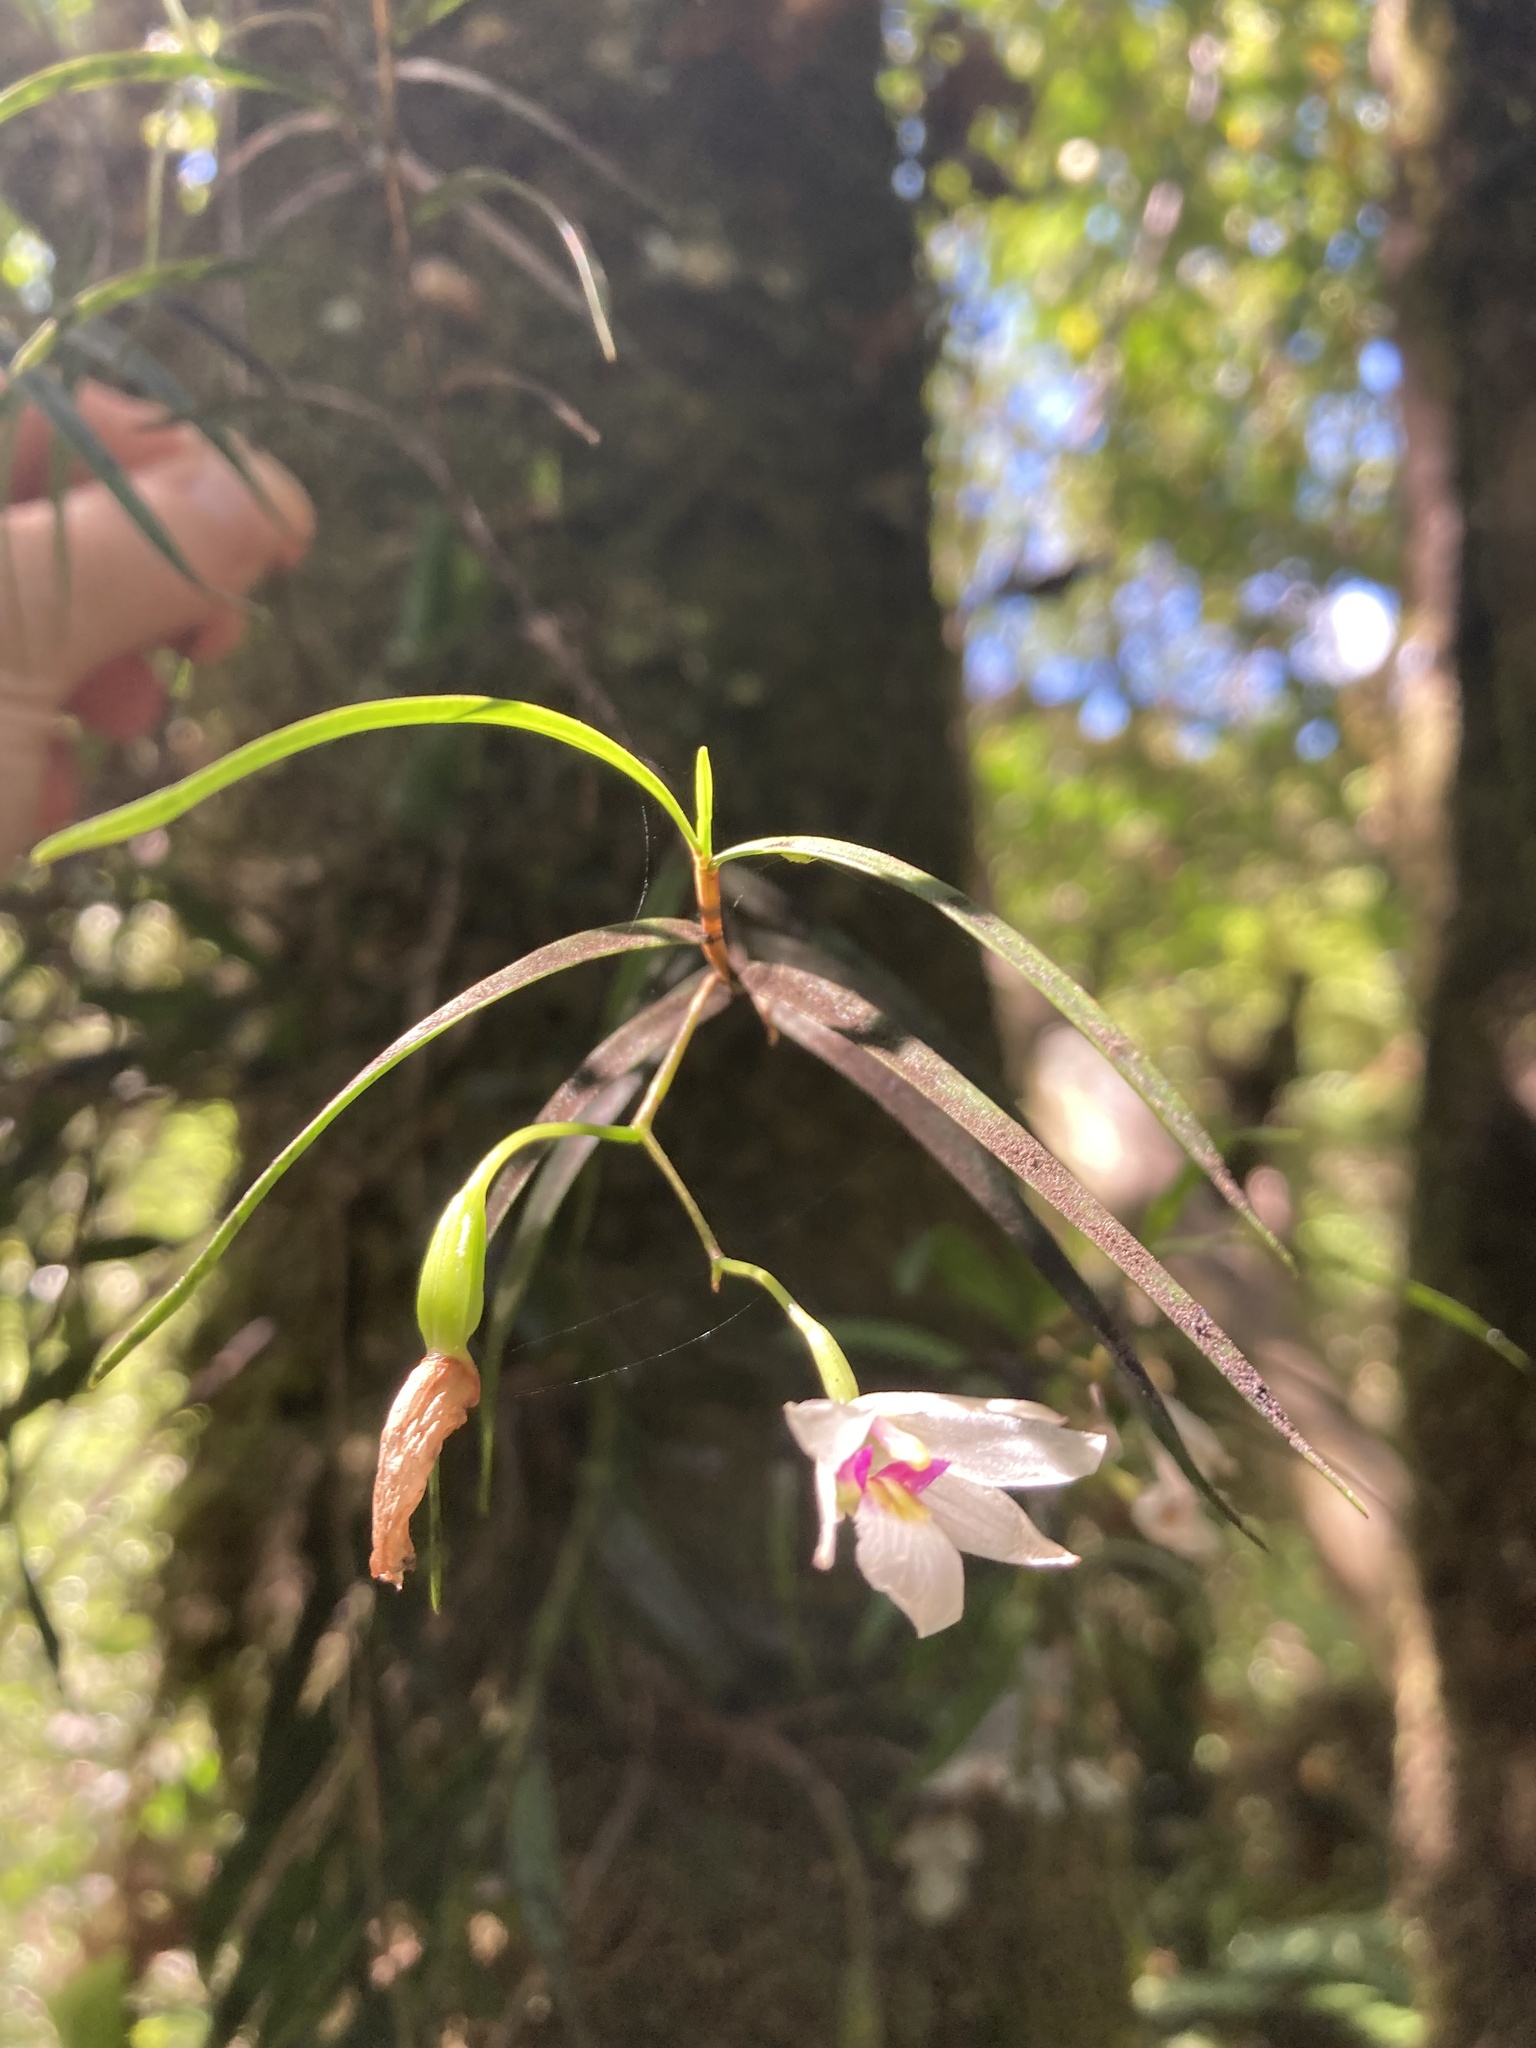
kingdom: Plantae
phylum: Tracheophyta
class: Liliopsida
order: Asparagales
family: Orchidaceae
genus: Dendrobium
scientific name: Dendrobium cunninghamii
